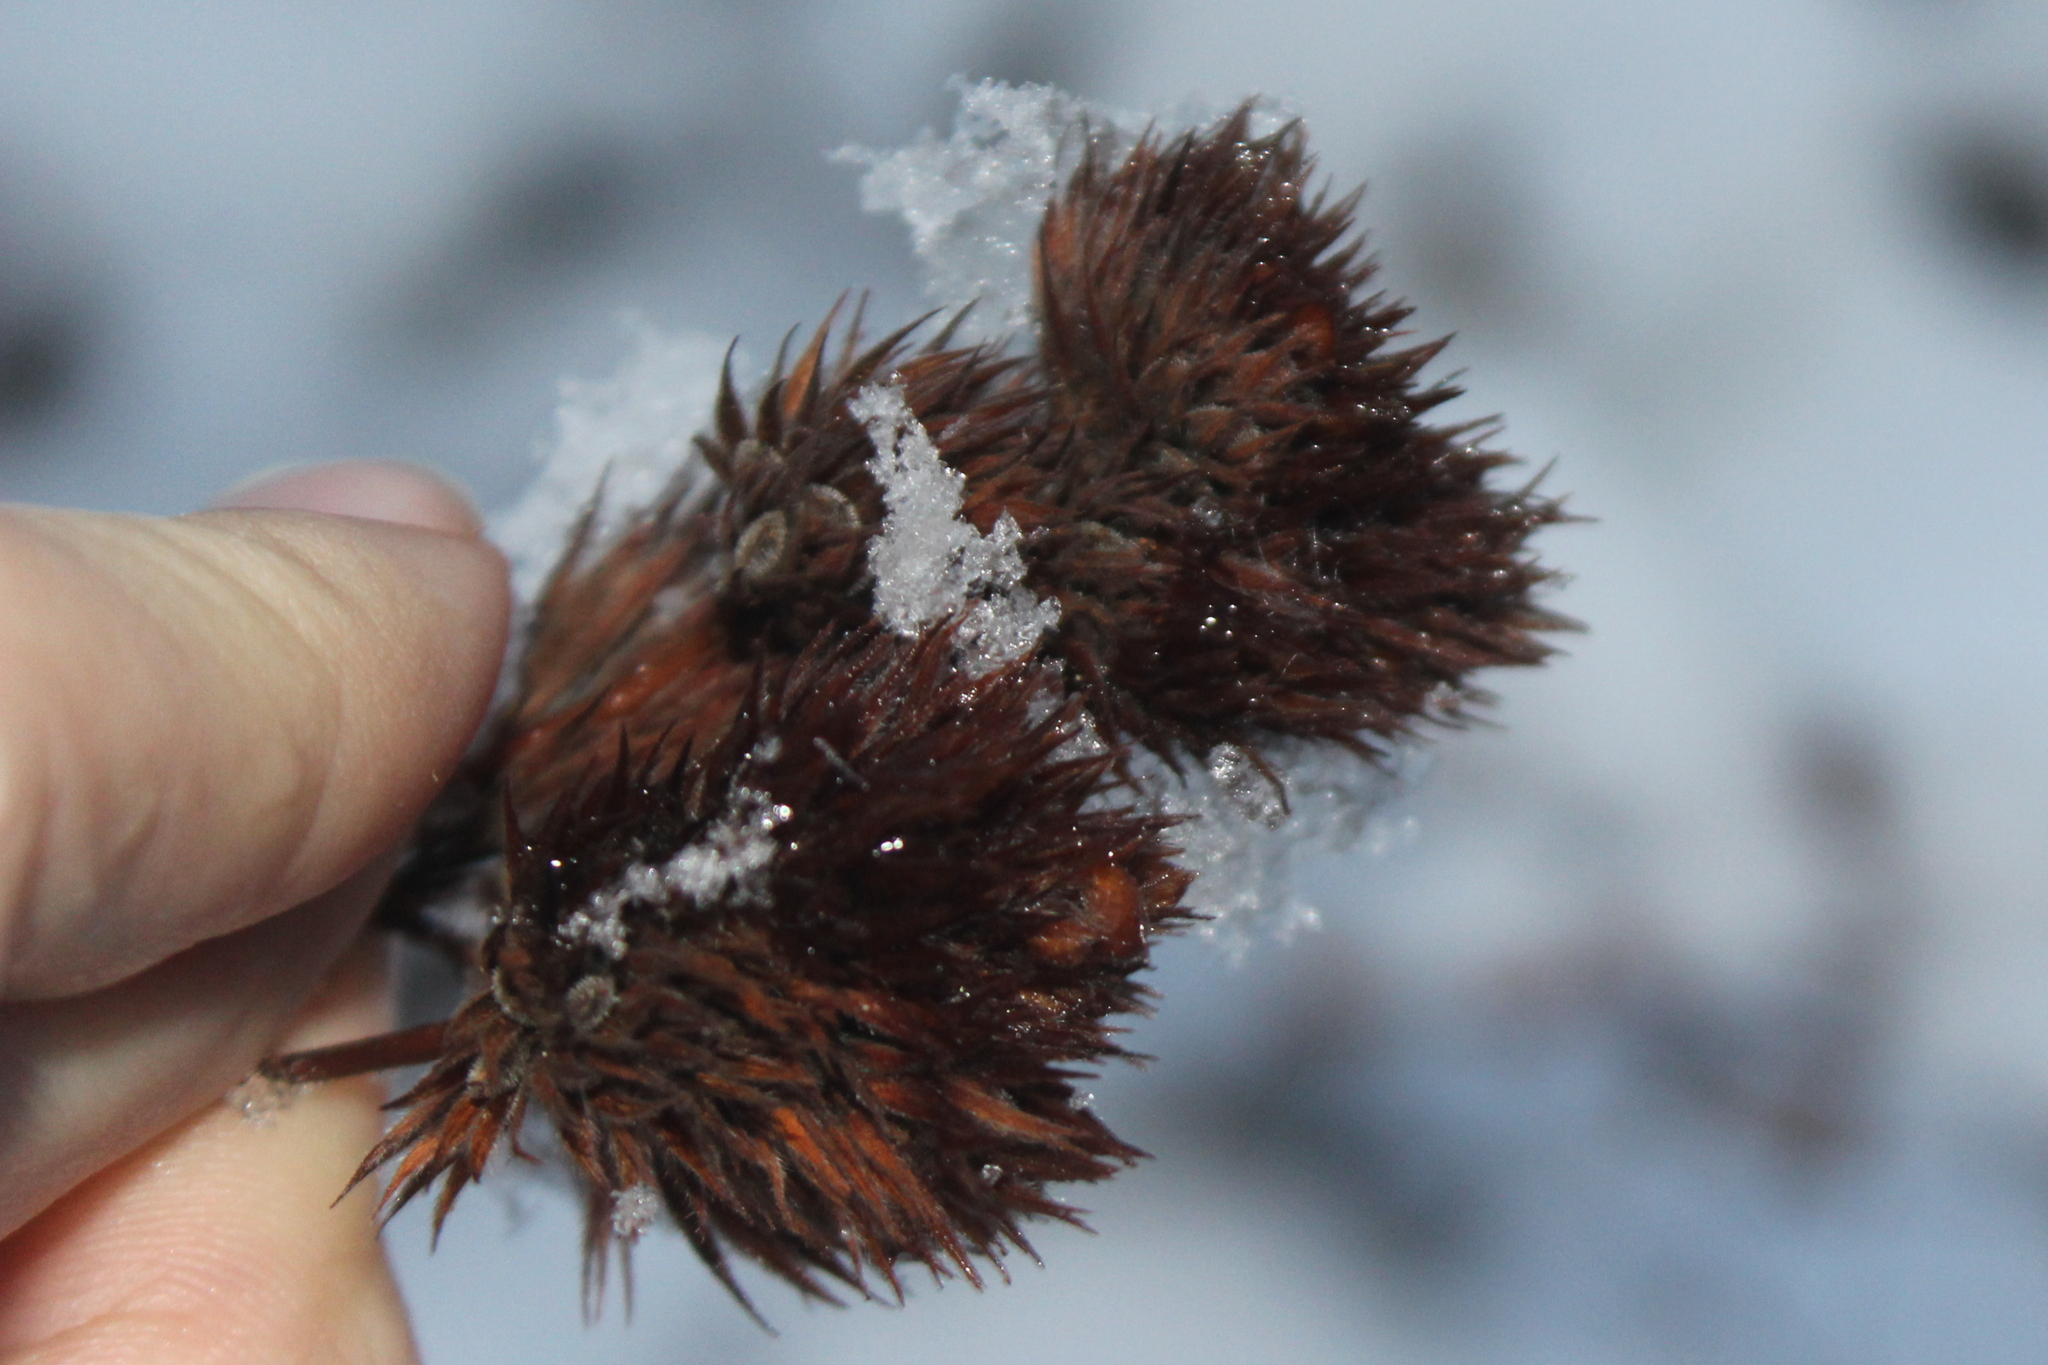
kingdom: Plantae
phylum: Tracheophyta
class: Magnoliopsida
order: Fabales
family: Fabaceae
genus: Lespedeza
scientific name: Lespedeza capitata
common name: Dusty clover
